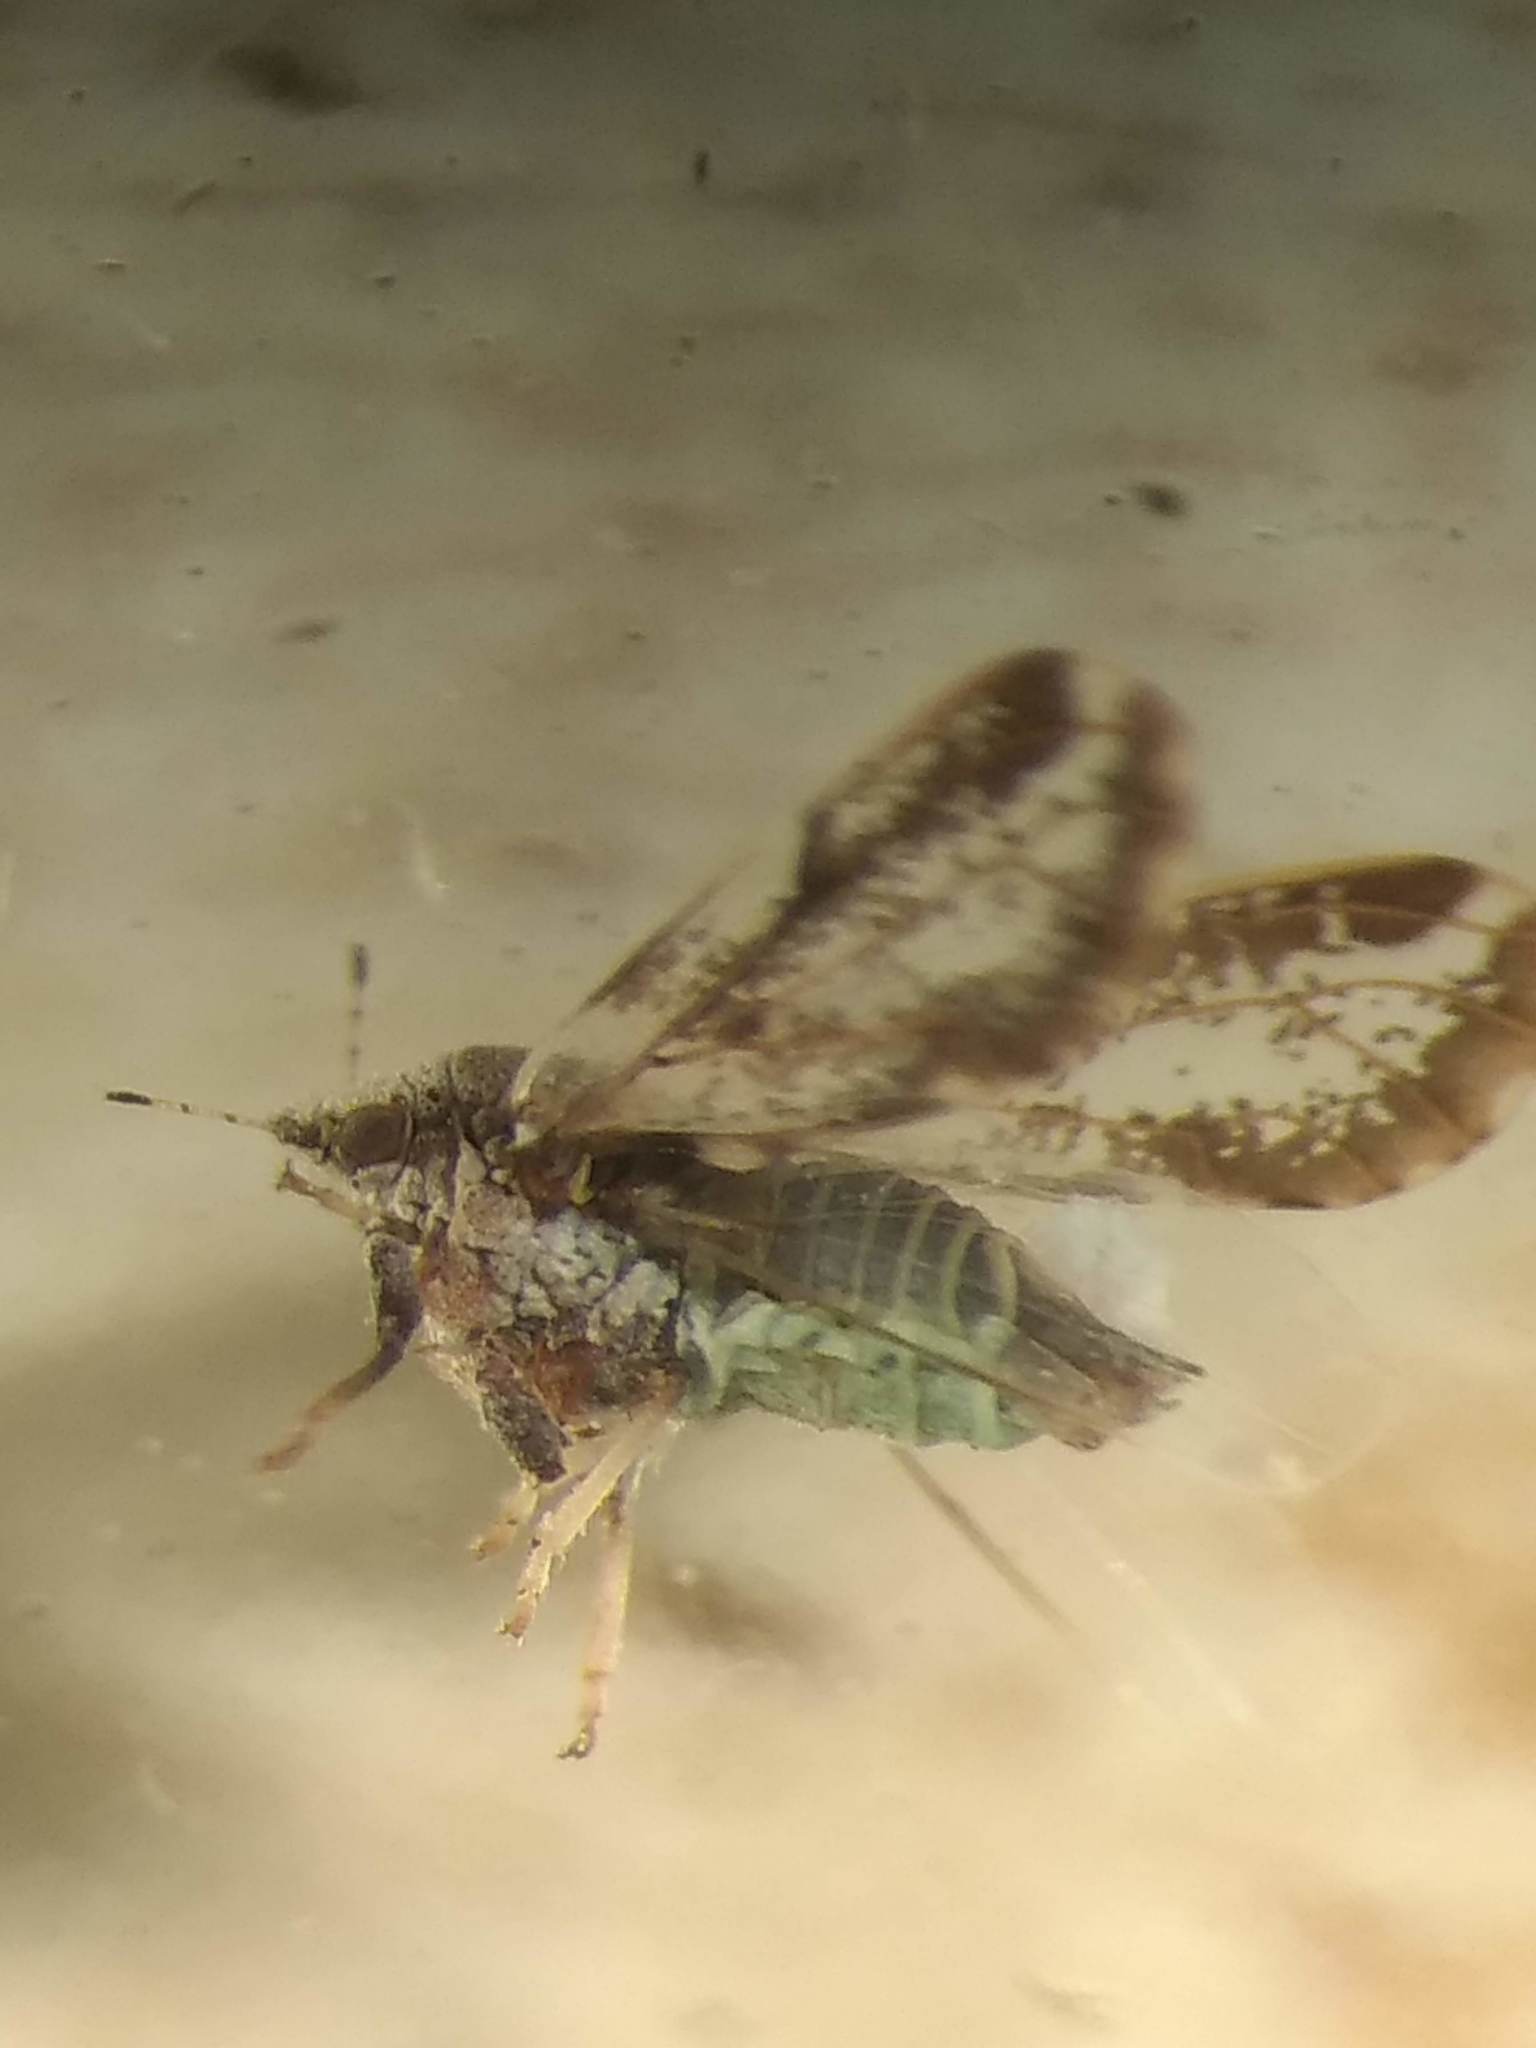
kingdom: Animalia
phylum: Arthropoda
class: Insecta
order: Hemiptera
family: Liviidae
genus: Diaphorina
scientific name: Diaphorina citri
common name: Asian citrus psyllid
